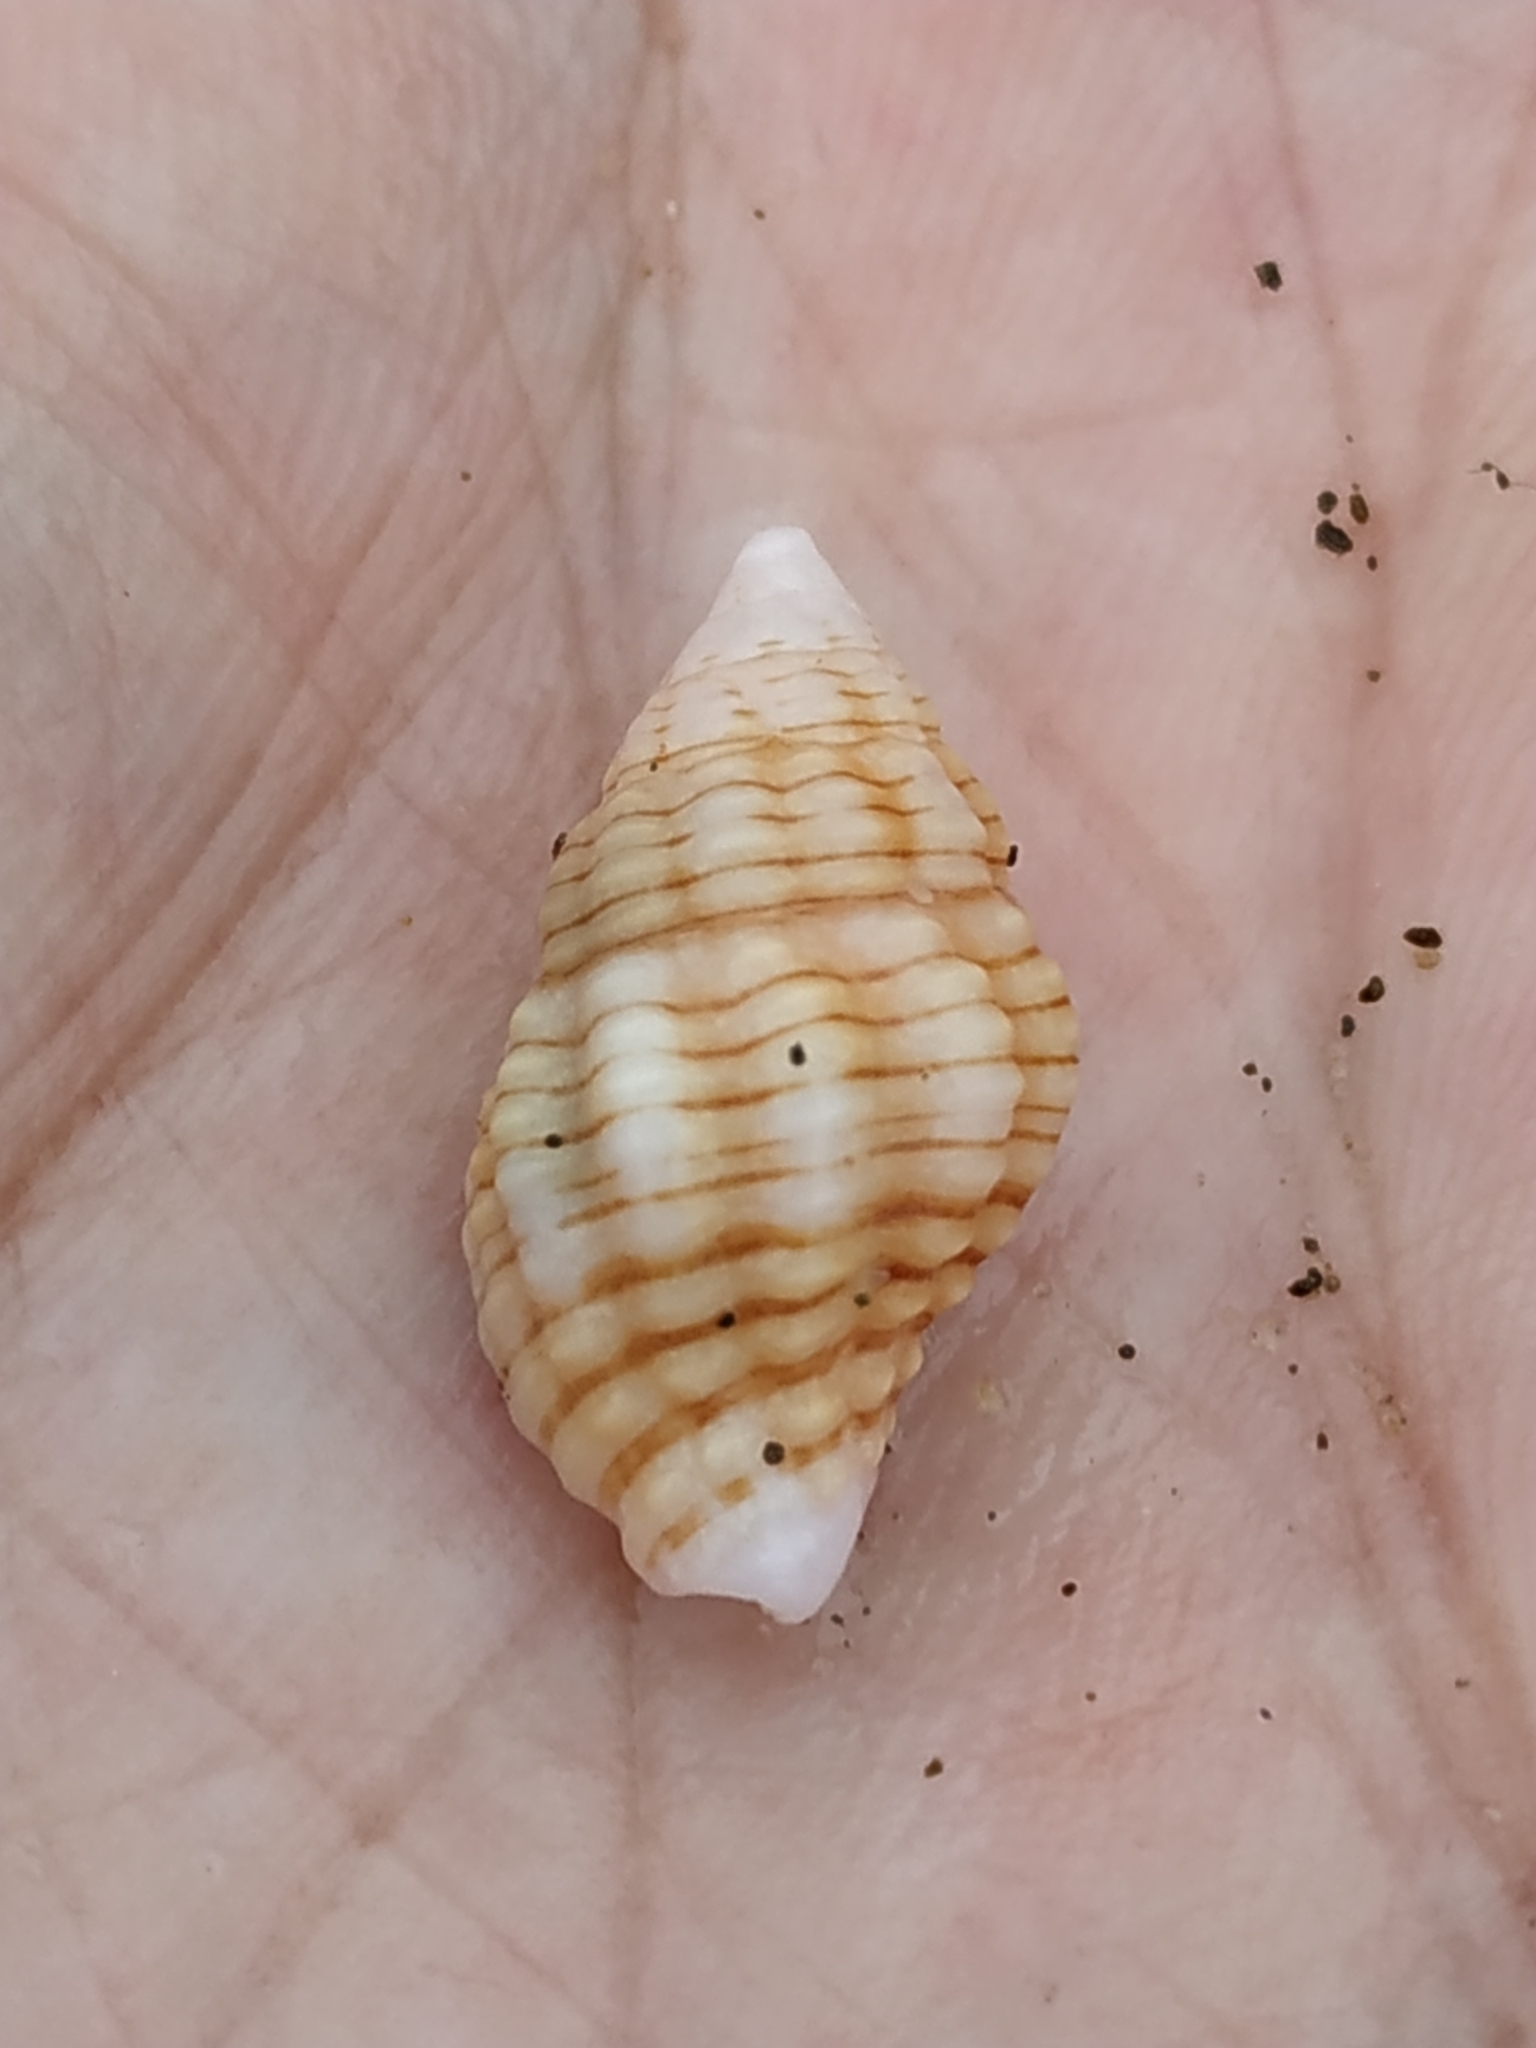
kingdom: Animalia
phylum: Mollusca
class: Gastropoda
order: Neogastropoda
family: Prodotiidae
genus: Clivipollia
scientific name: Clivipollia pulchra
